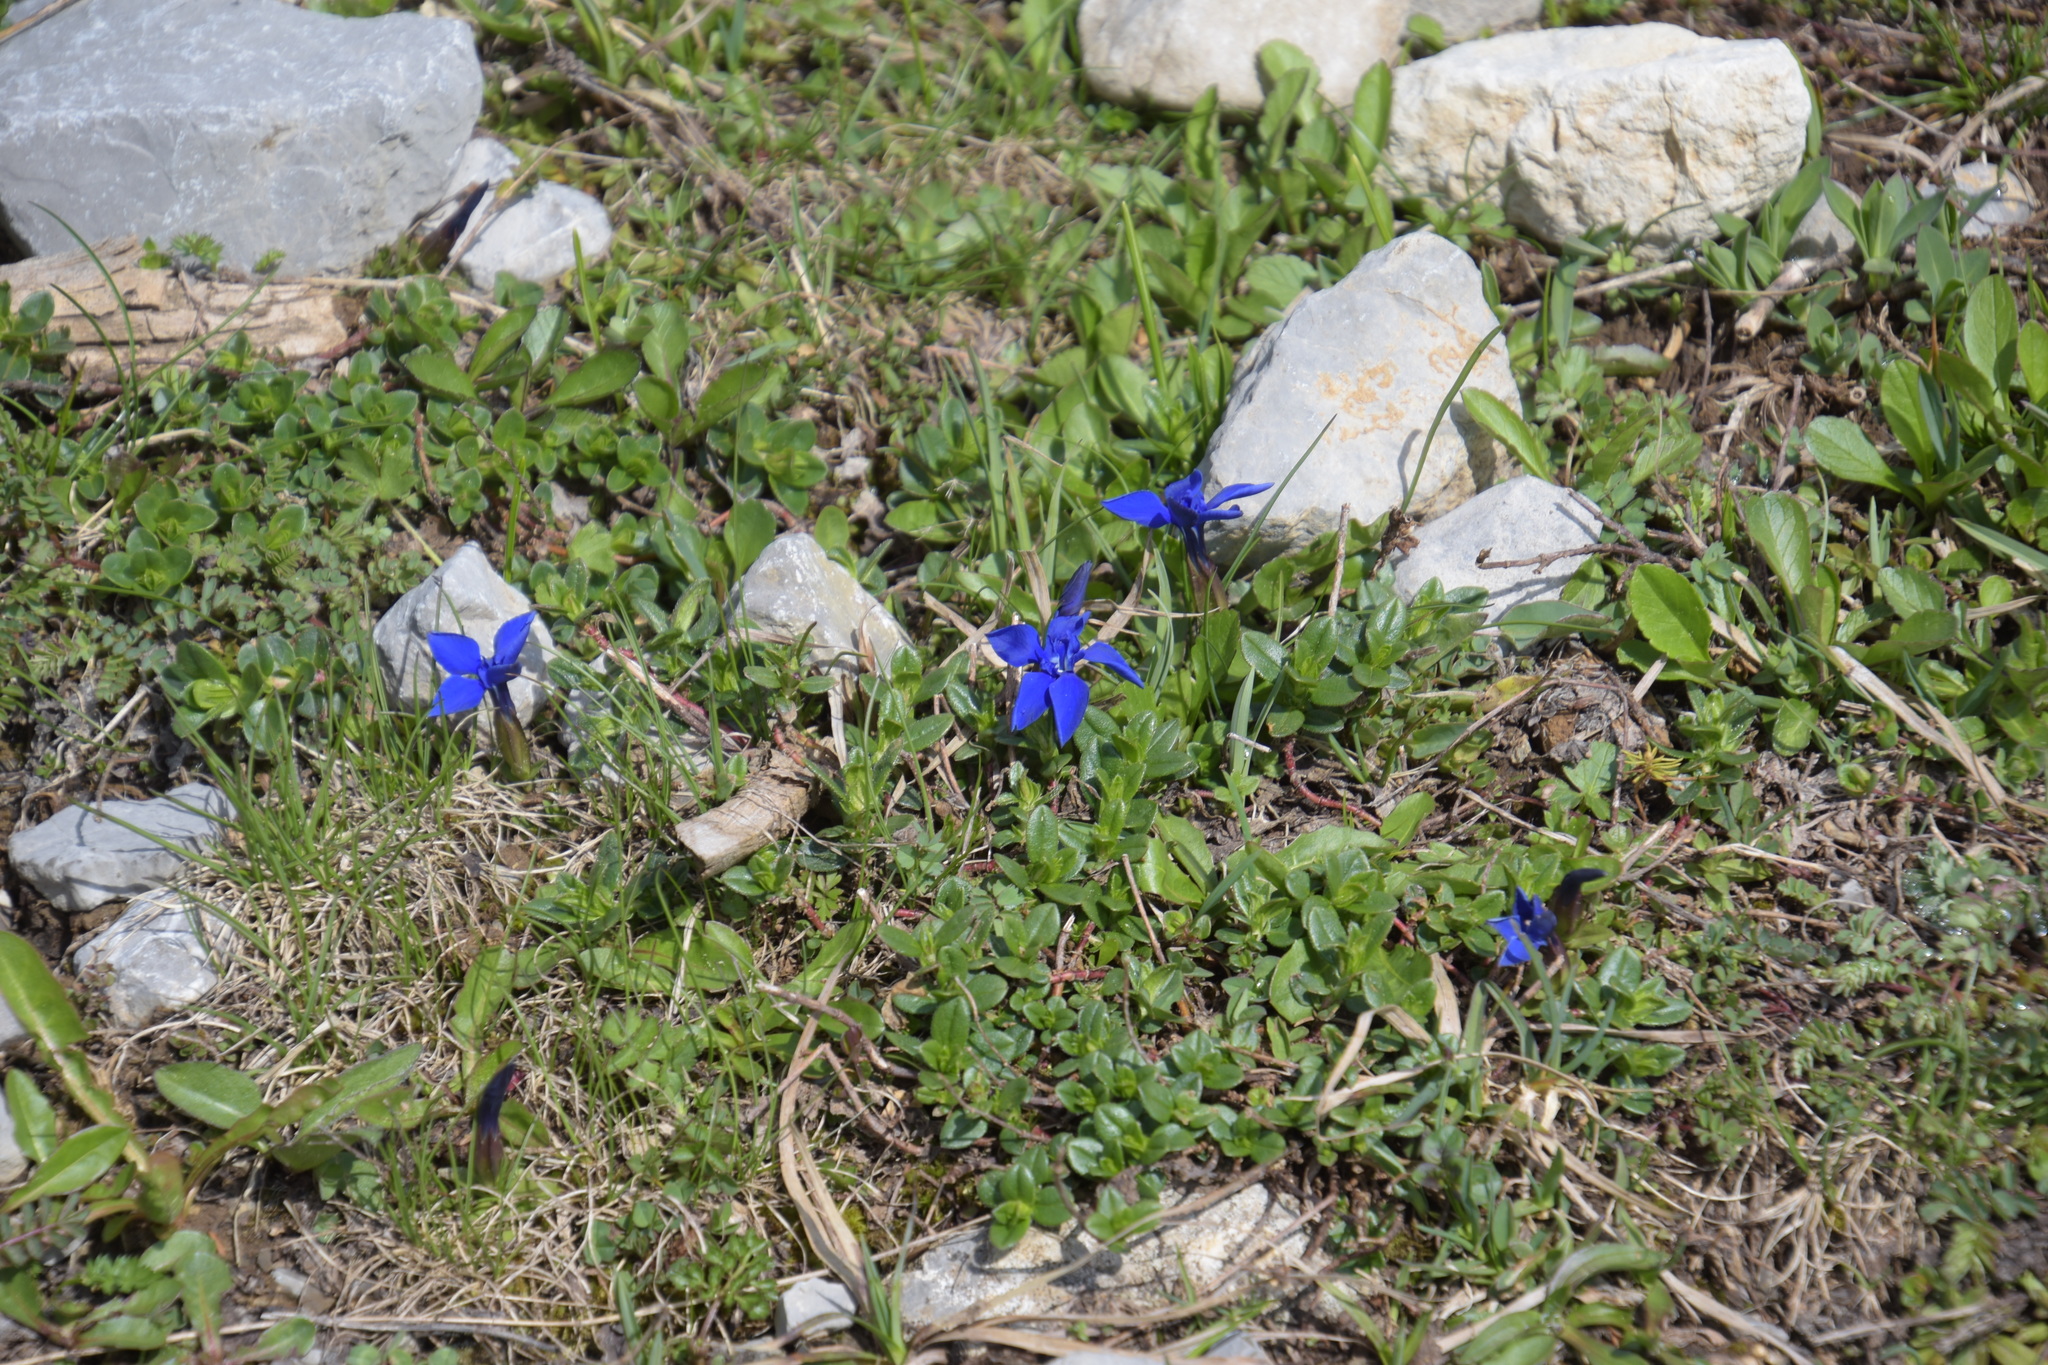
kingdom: Plantae
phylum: Tracheophyta
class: Magnoliopsida
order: Gentianales
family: Gentianaceae
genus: Gentiana
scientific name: Gentiana verna
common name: Spring gentian
